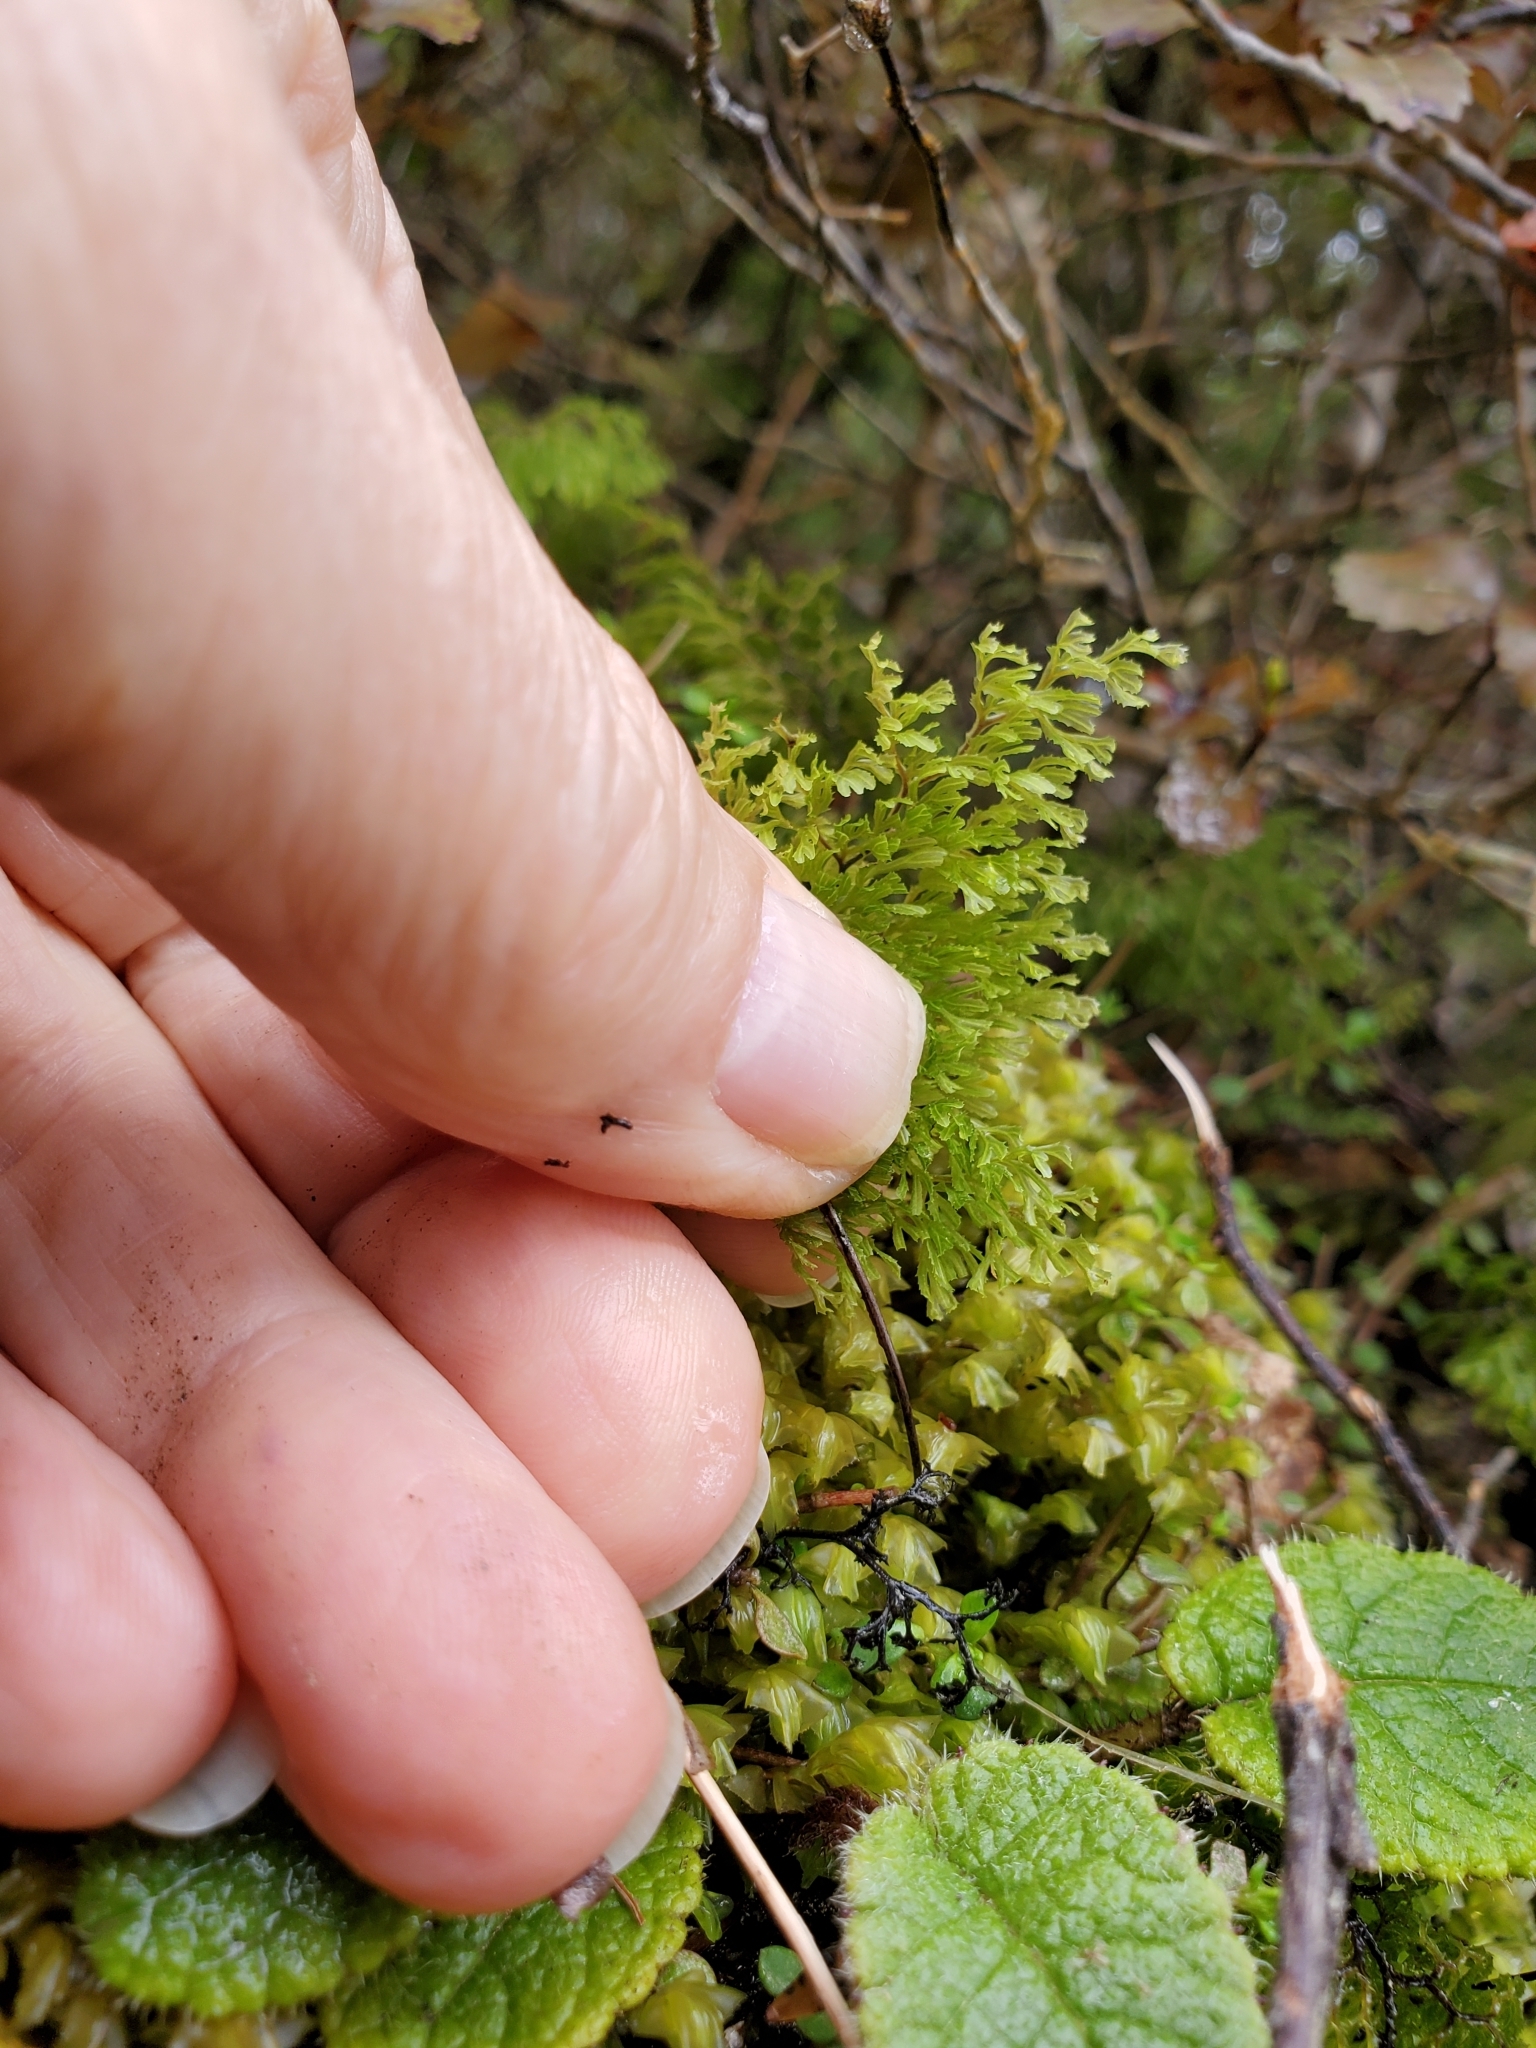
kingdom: Plantae
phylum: Tracheophyta
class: Polypodiopsida
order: Hymenophyllales
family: Hymenophyllaceae
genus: Hymenophyllum
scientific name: Hymenophyllum multifidum
